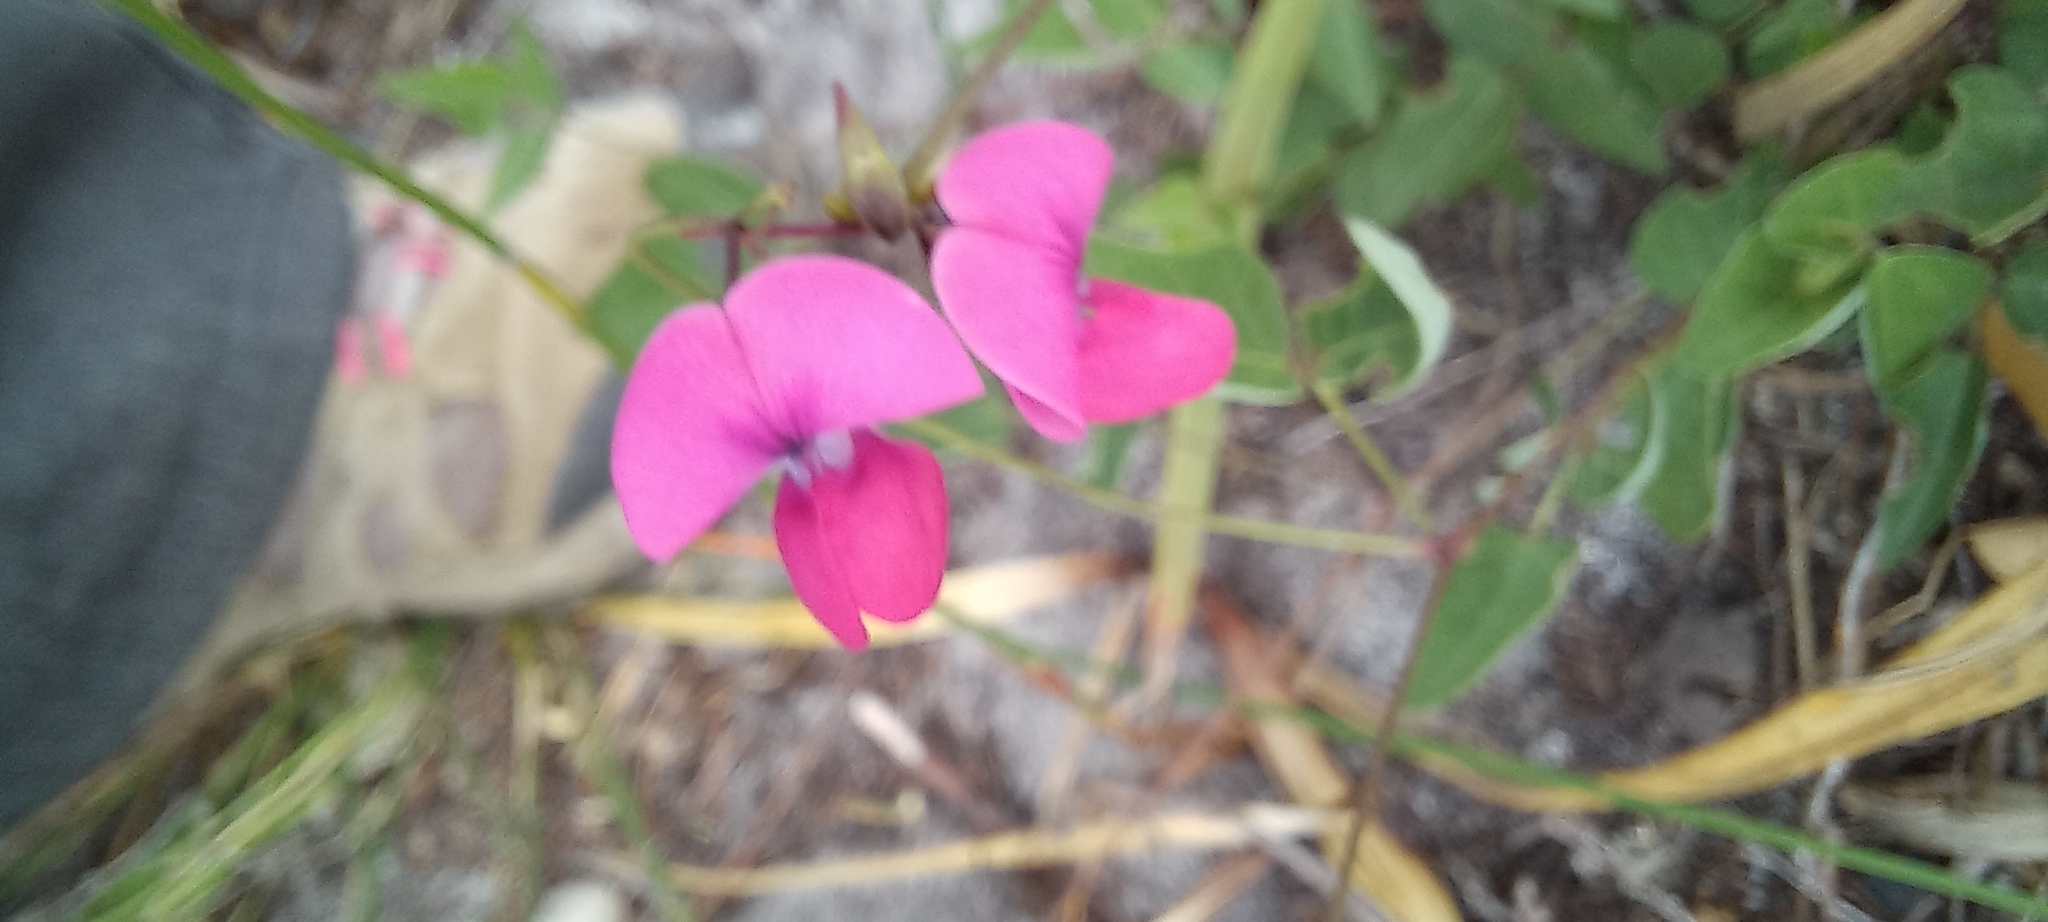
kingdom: Plantae
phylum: Tracheophyta
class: Magnoliopsida
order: Fabales
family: Fabaceae
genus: Dipogon
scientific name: Dipogon lignosus
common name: Okie bean
